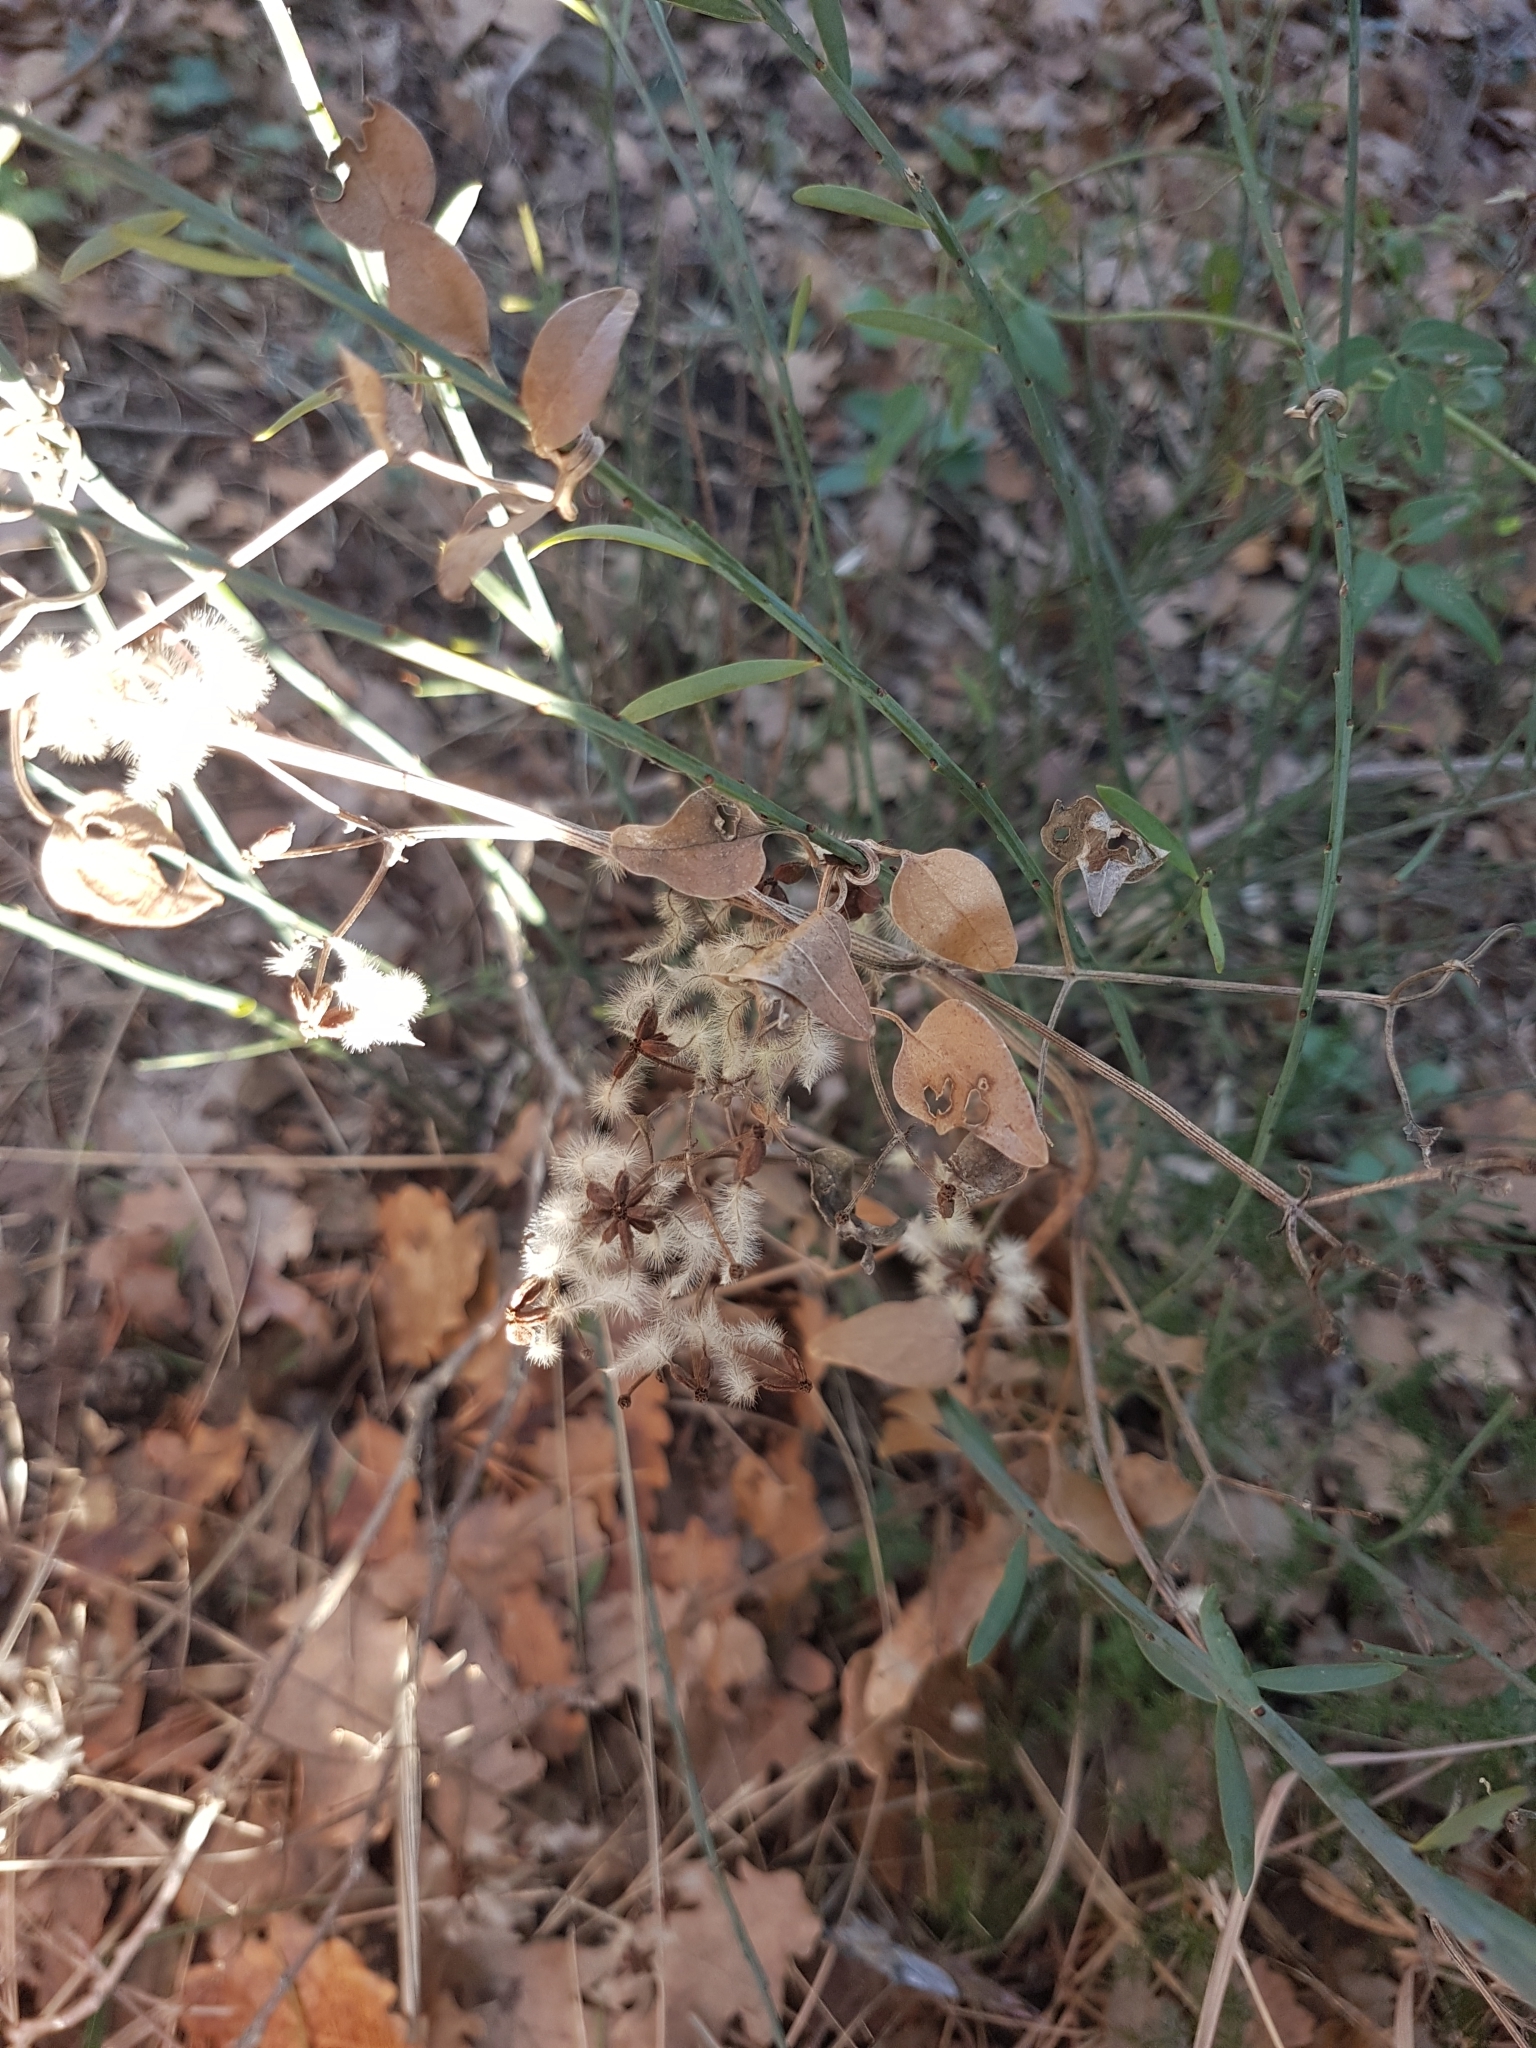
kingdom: Plantae
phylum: Tracheophyta
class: Magnoliopsida
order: Ranunculales
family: Ranunculaceae
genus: Clematis
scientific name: Clematis flammula
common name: Virgin's-bower
